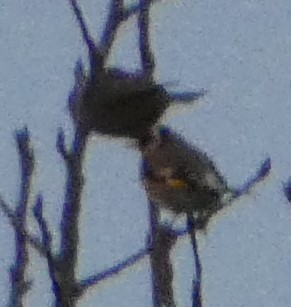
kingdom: Animalia
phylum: Chordata
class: Aves
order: Passeriformes
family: Fringillidae
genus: Carduelis
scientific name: Carduelis carduelis
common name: European goldfinch
